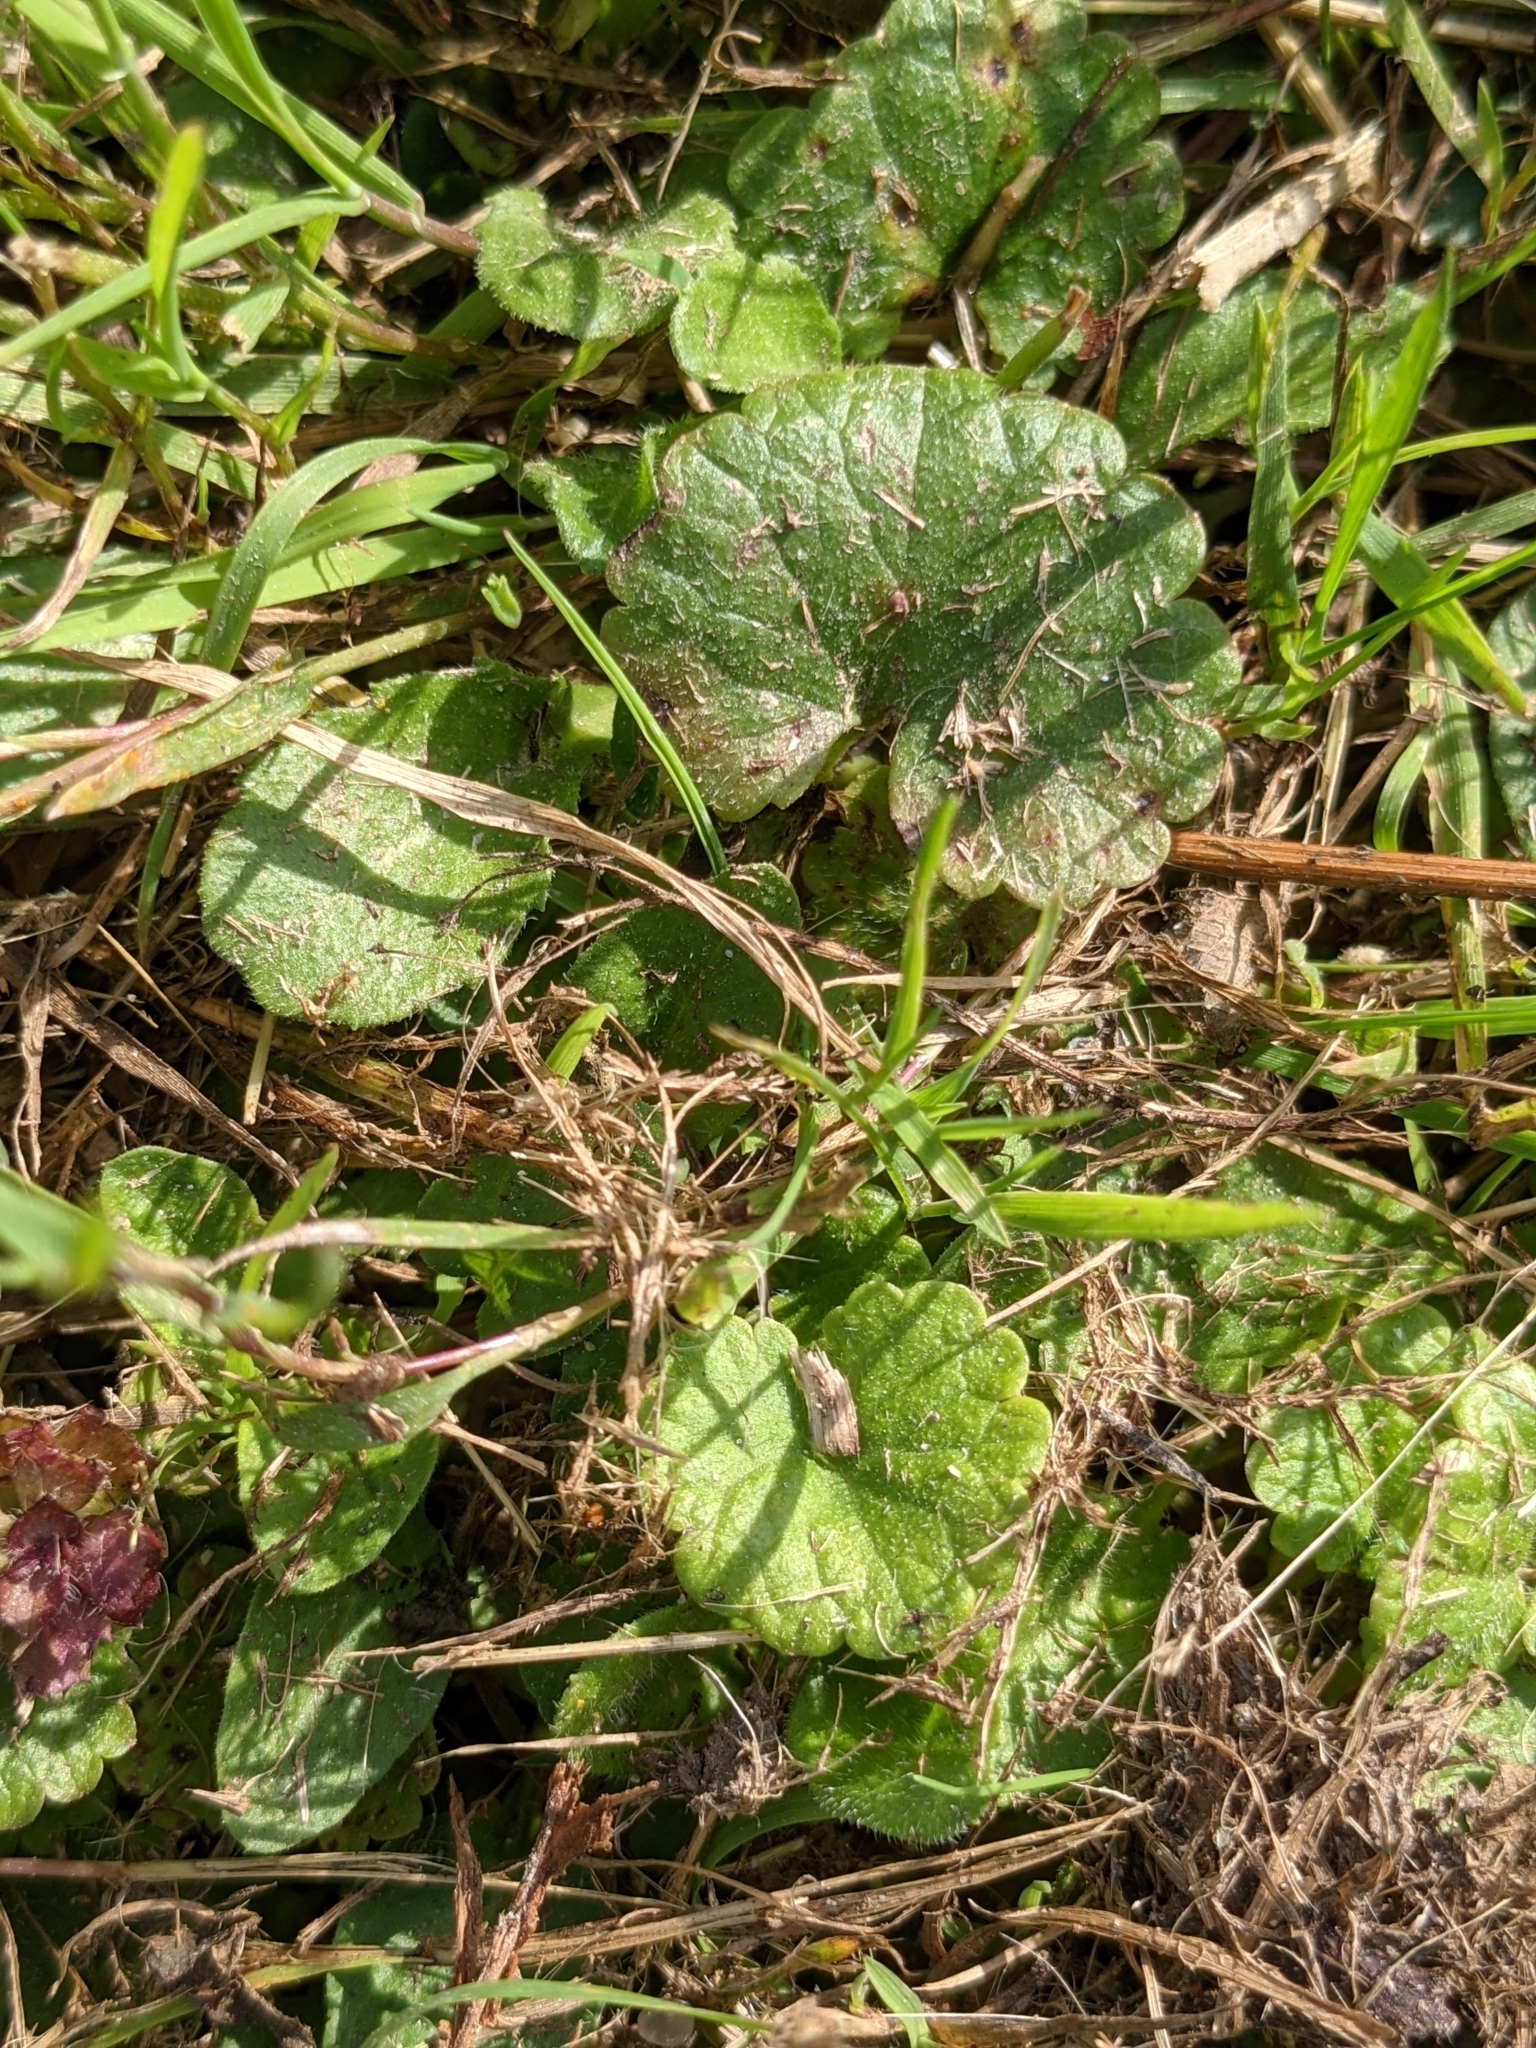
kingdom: Plantae
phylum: Tracheophyta
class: Magnoliopsida
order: Lamiales
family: Lamiaceae
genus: Glechoma
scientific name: Glechoma hederacea
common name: Ground ivy
